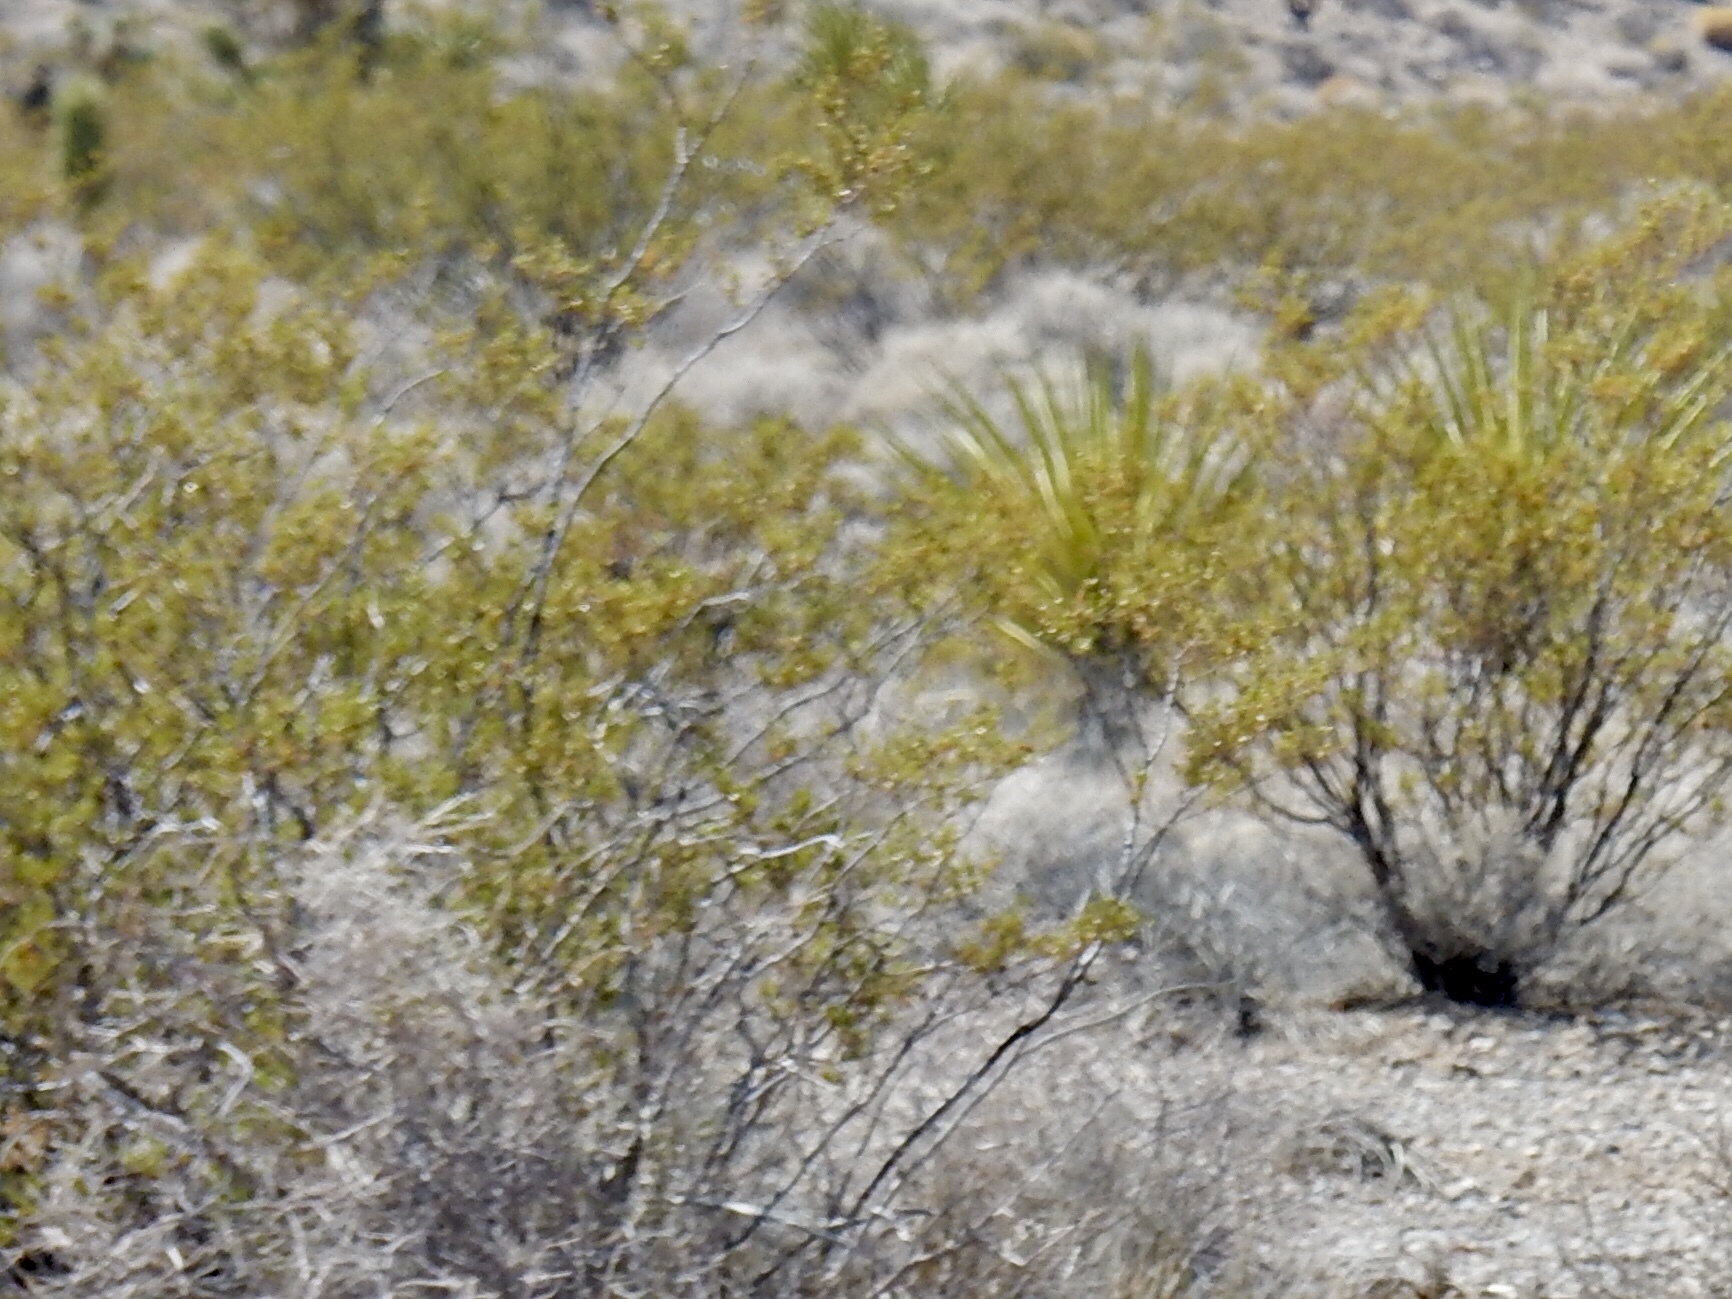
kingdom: Plantae
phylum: Tracheophyta
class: Magnoliopsida
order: Zygophyllales
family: Zygophyllaceae
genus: Larrea
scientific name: Larrea tridentata
